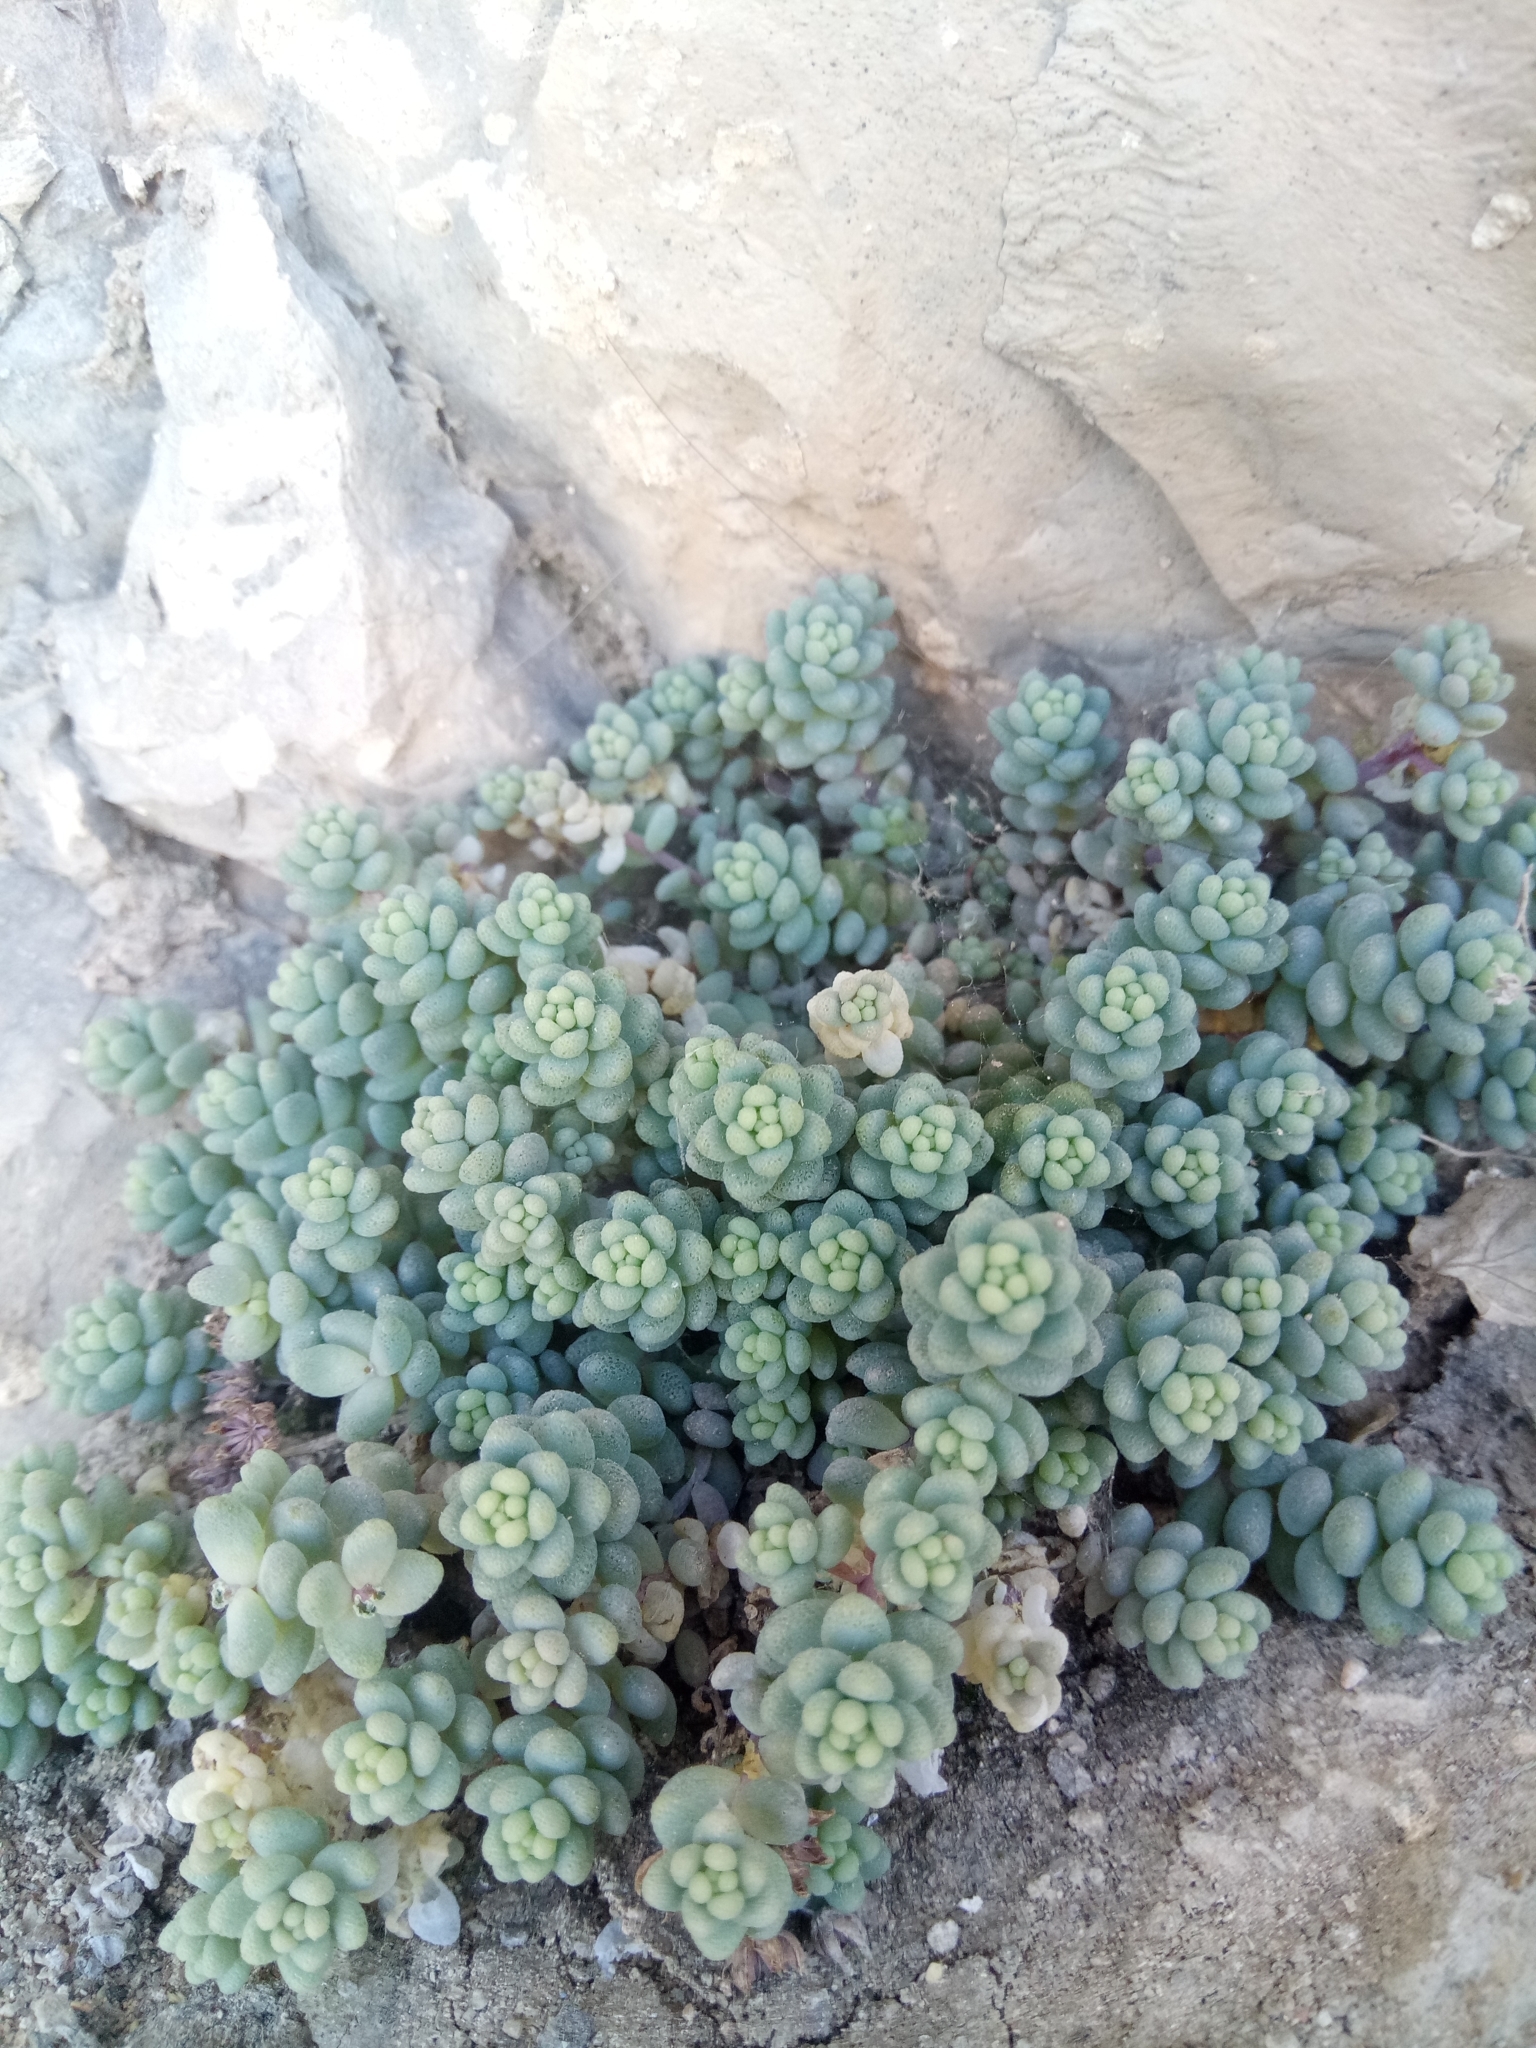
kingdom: Plantae
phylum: Tracheophyta
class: Magnoliopsida
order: Saxifragales
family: Crassulaceae
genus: Sedum
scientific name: Sedum dasyphyllum
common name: Thick-leaf stonecrop
